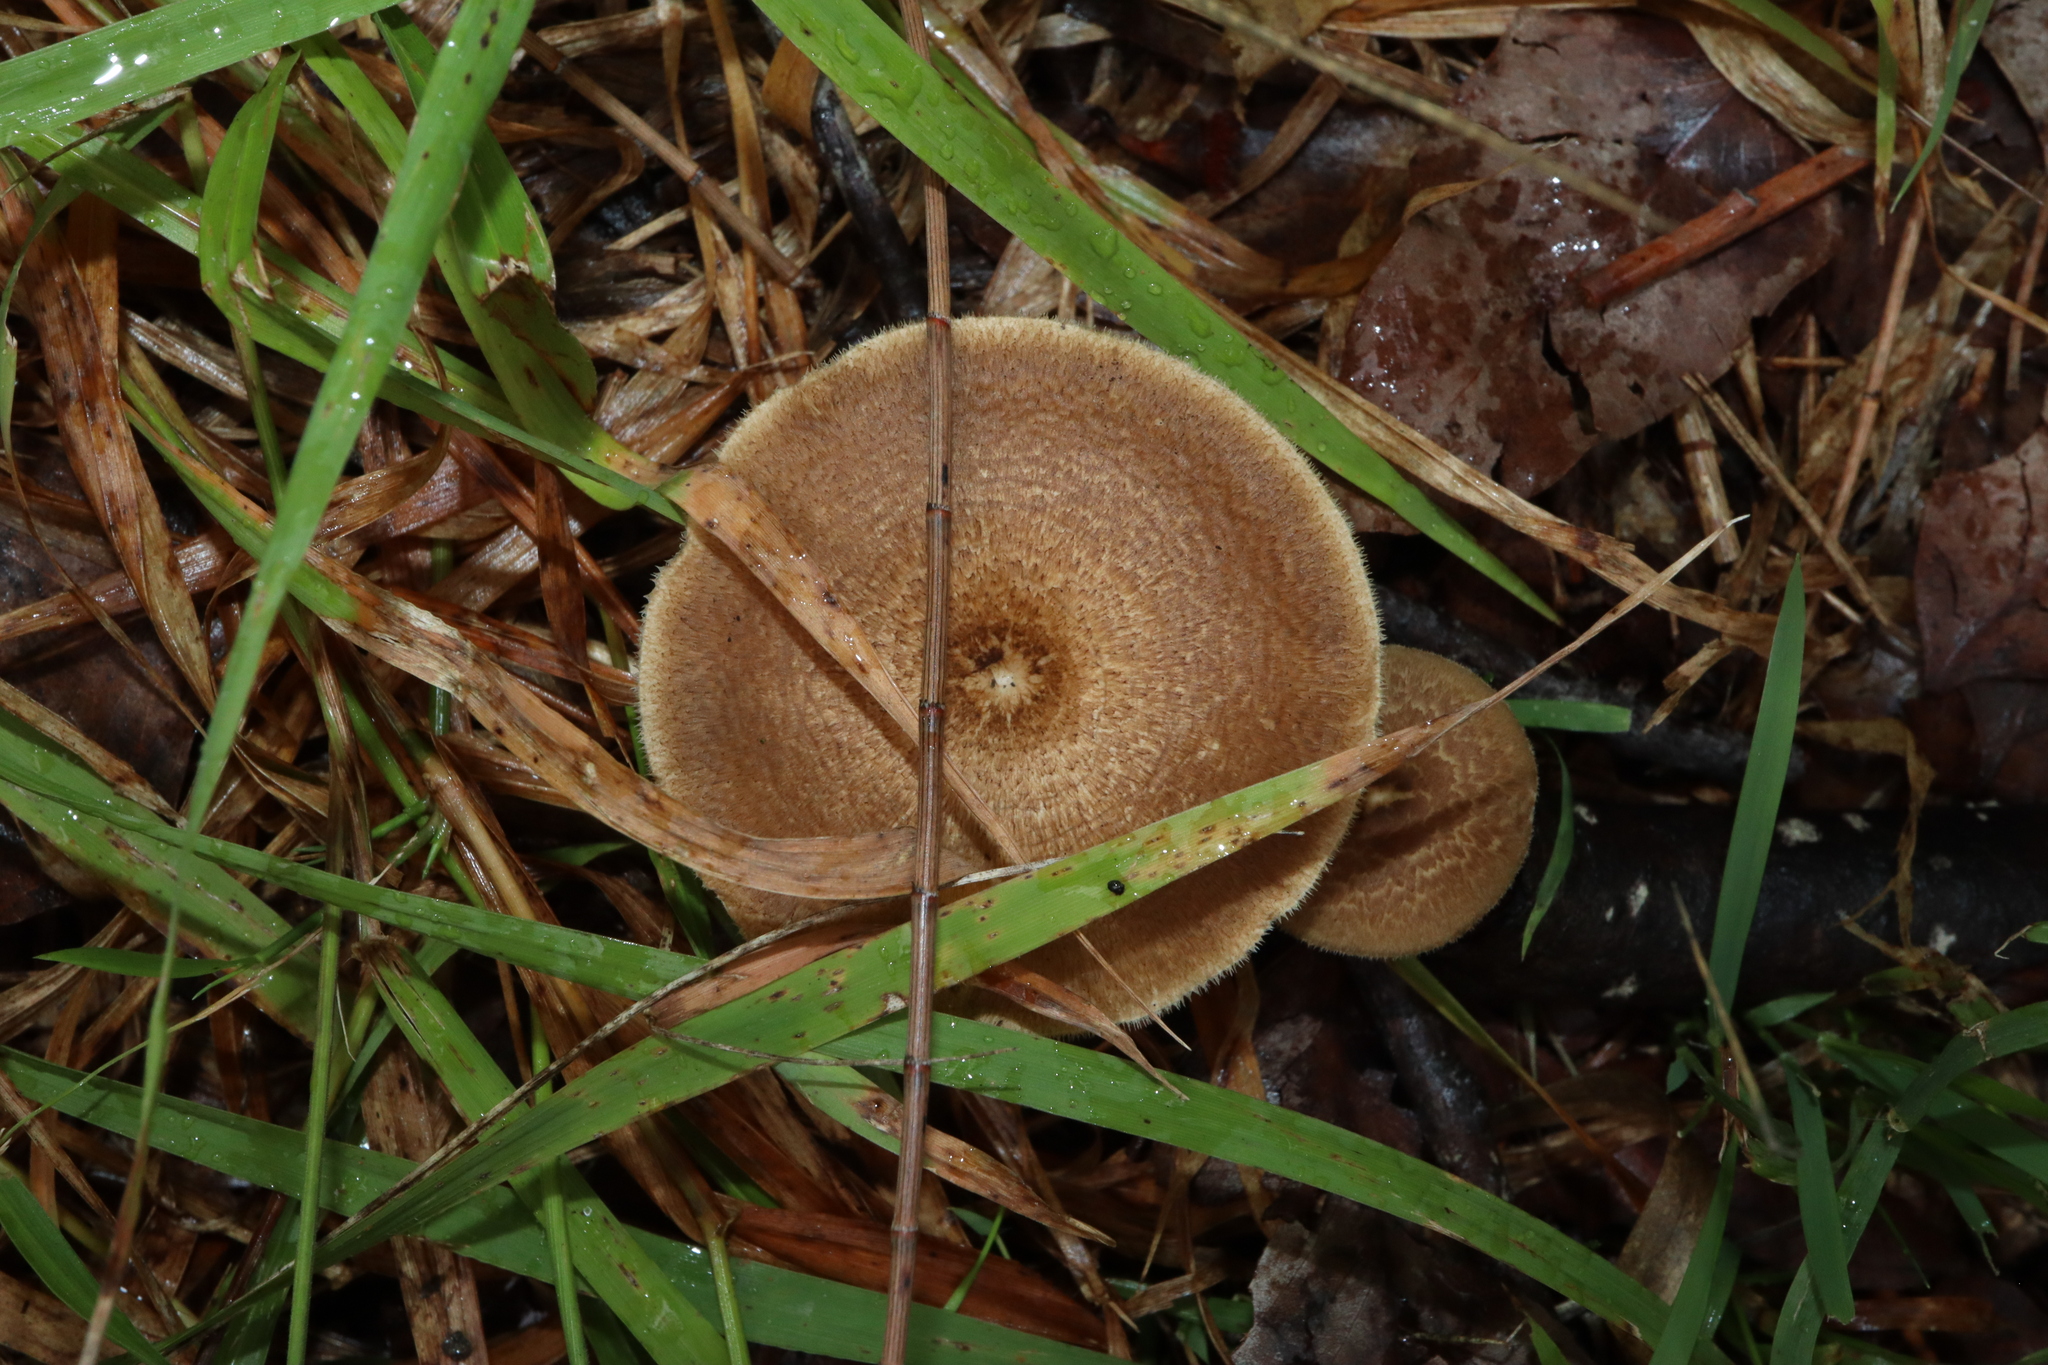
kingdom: Fungi
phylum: Basidiomycota
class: Agaricomycetes
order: Polyporales
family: Polyporaceae
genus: Lentinus
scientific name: Lentinus arcularius
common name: Spring polypore
